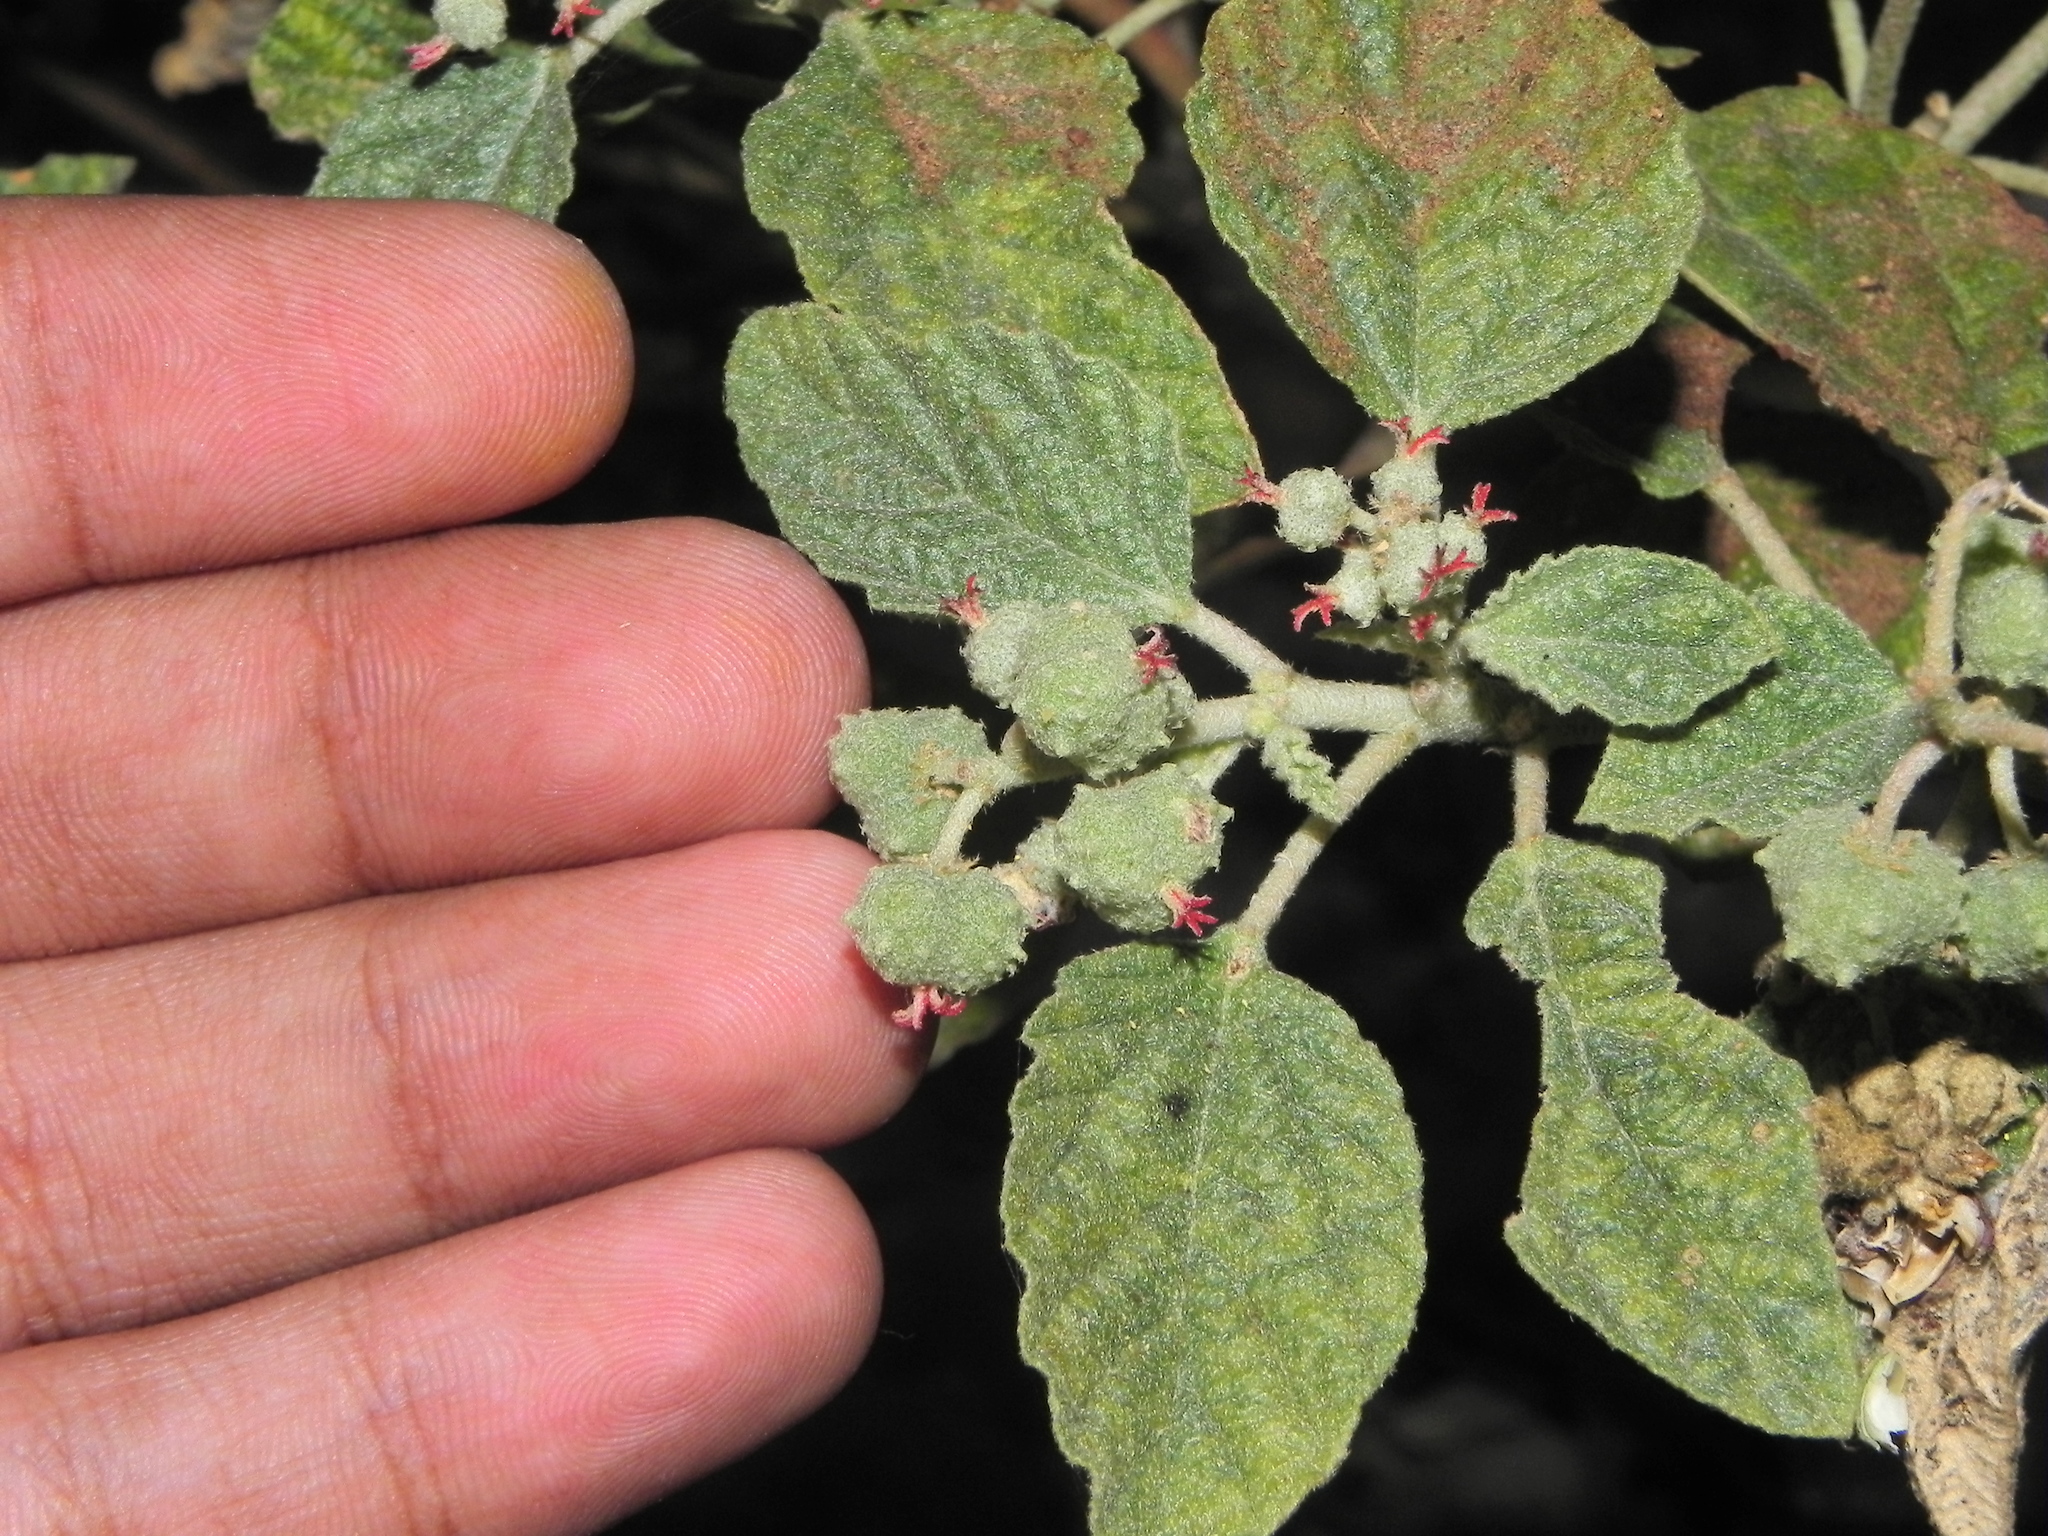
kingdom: Plantae
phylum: Tracheophyta
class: Magnoliopsida
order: Malpighiales
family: Euphorbiaceae
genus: Chrozophora
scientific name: Chrozophora rottleri
